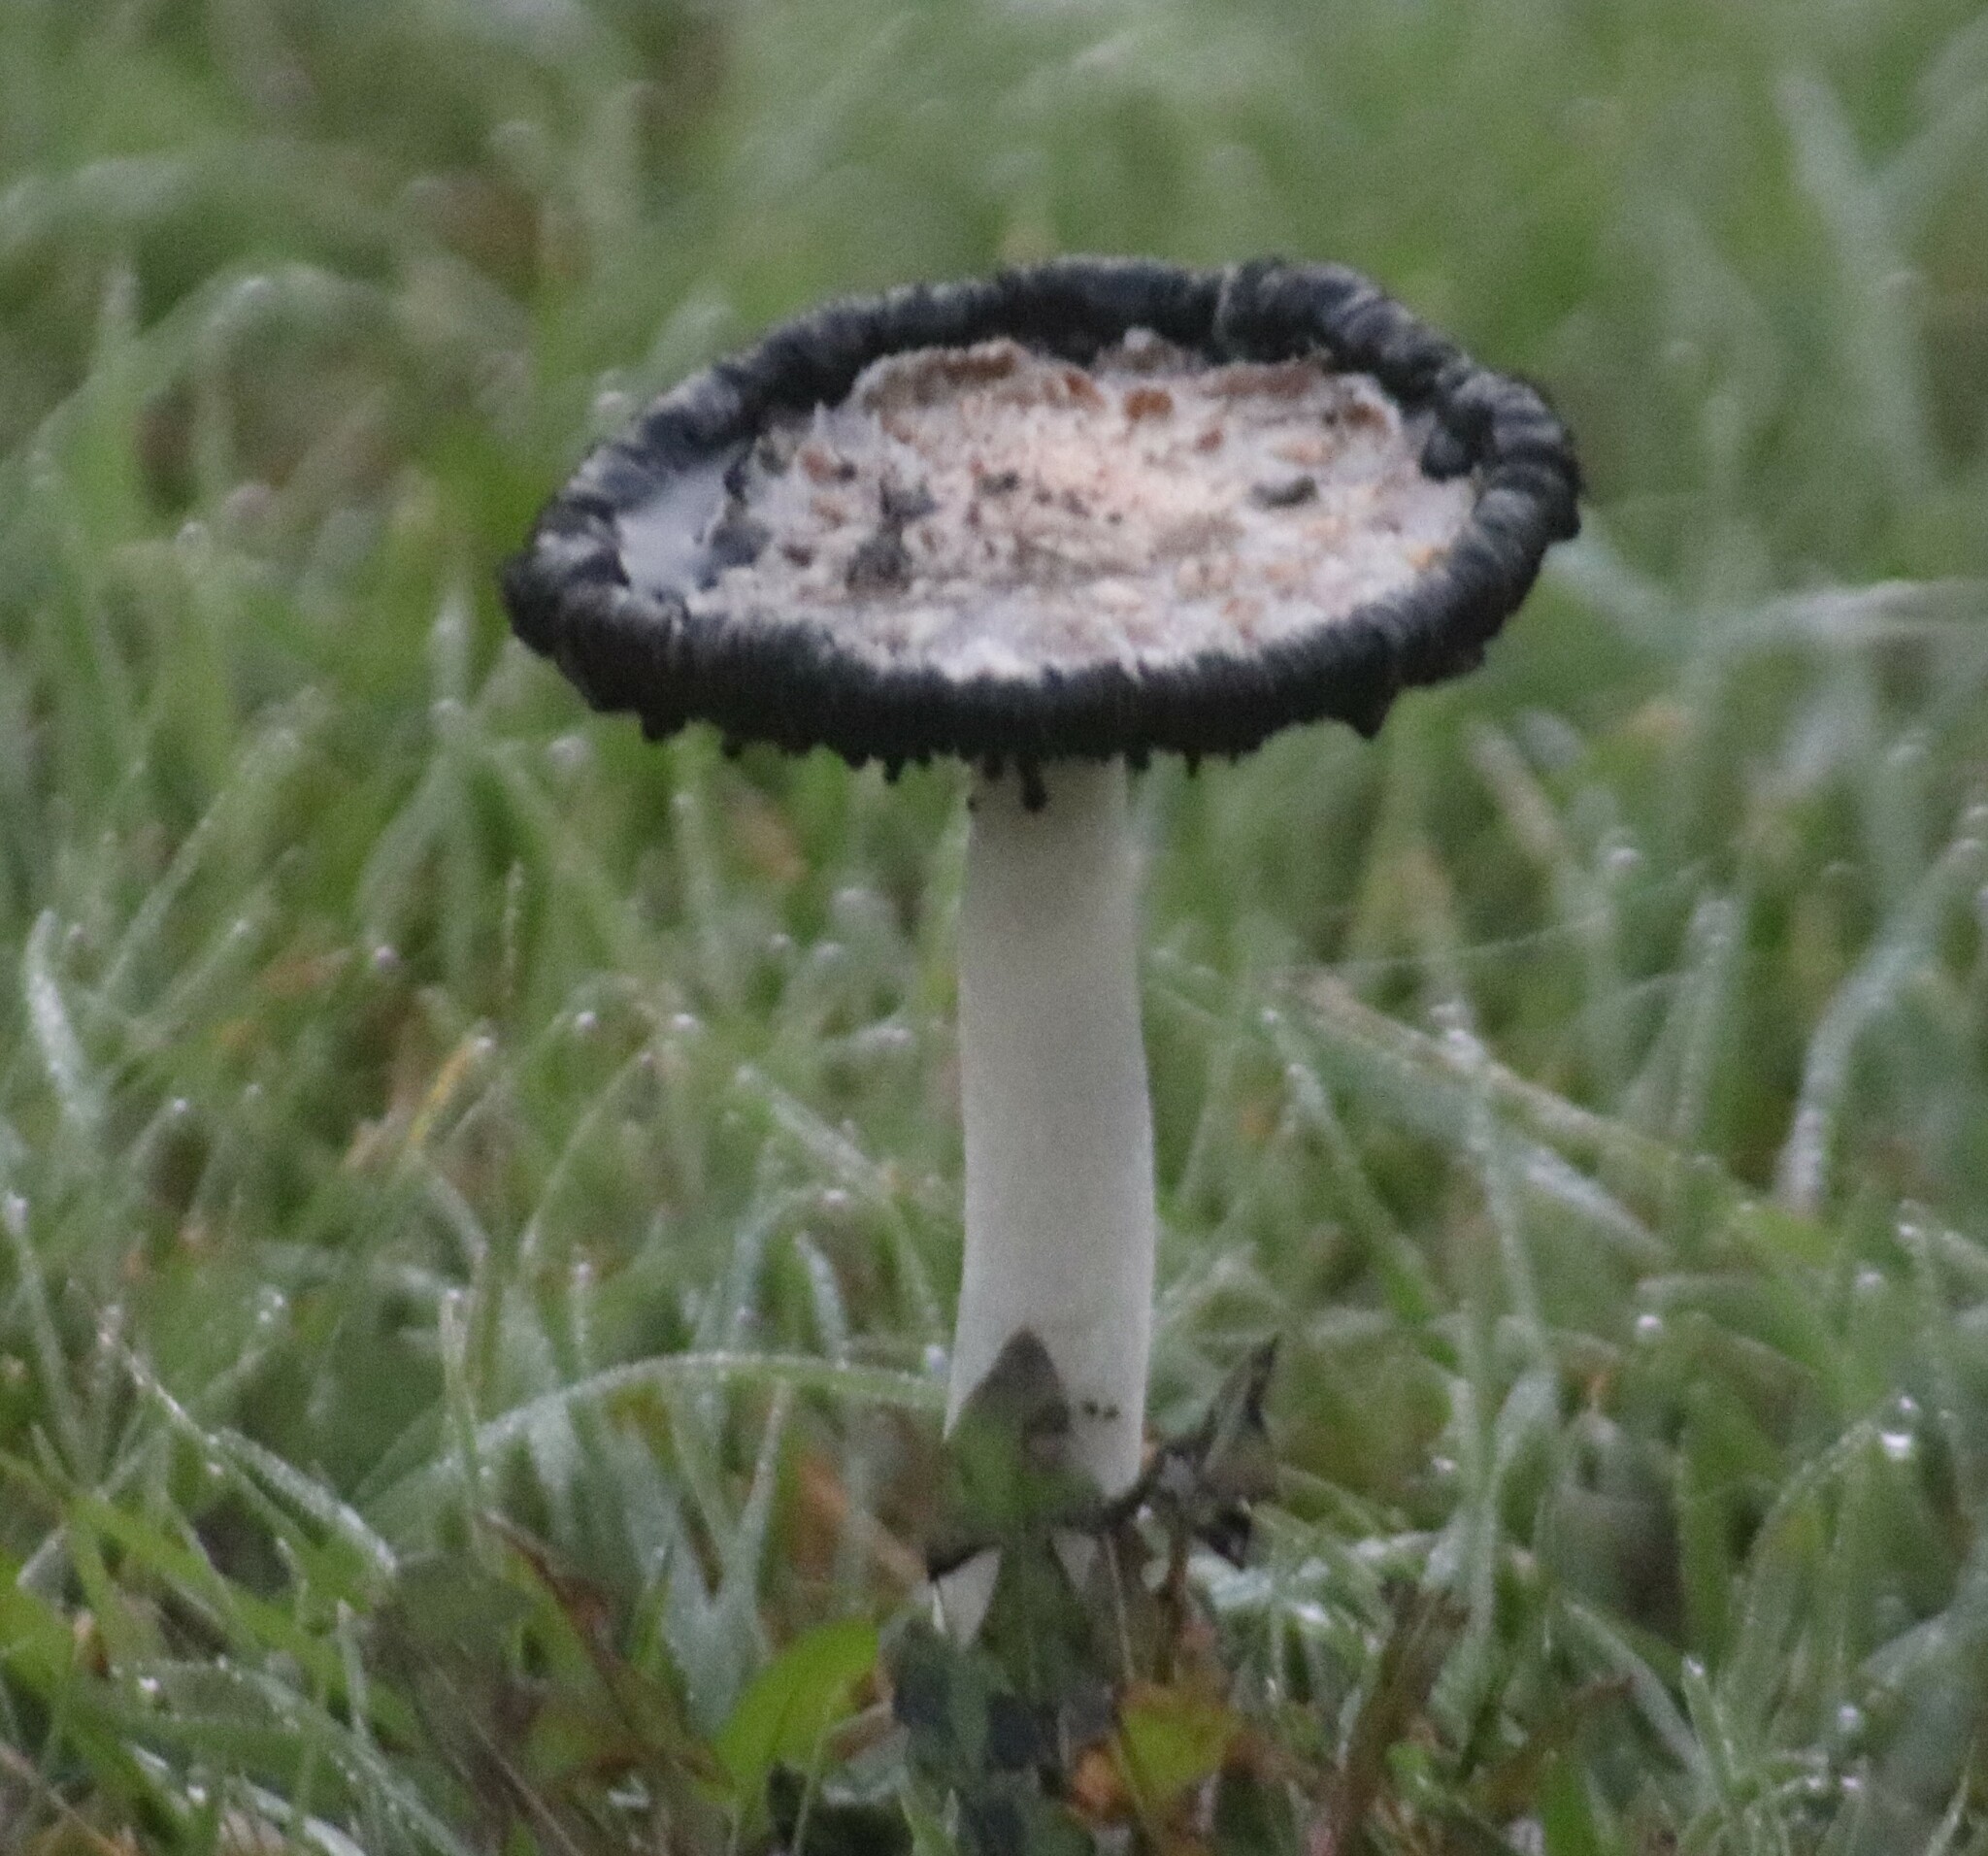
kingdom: Fungi
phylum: Basidiomycota
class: Agaricomycetes
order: Agaricales
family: Agaricaceae
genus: Coprinus
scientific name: Coprinus comatus
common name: Lawyer's wig
